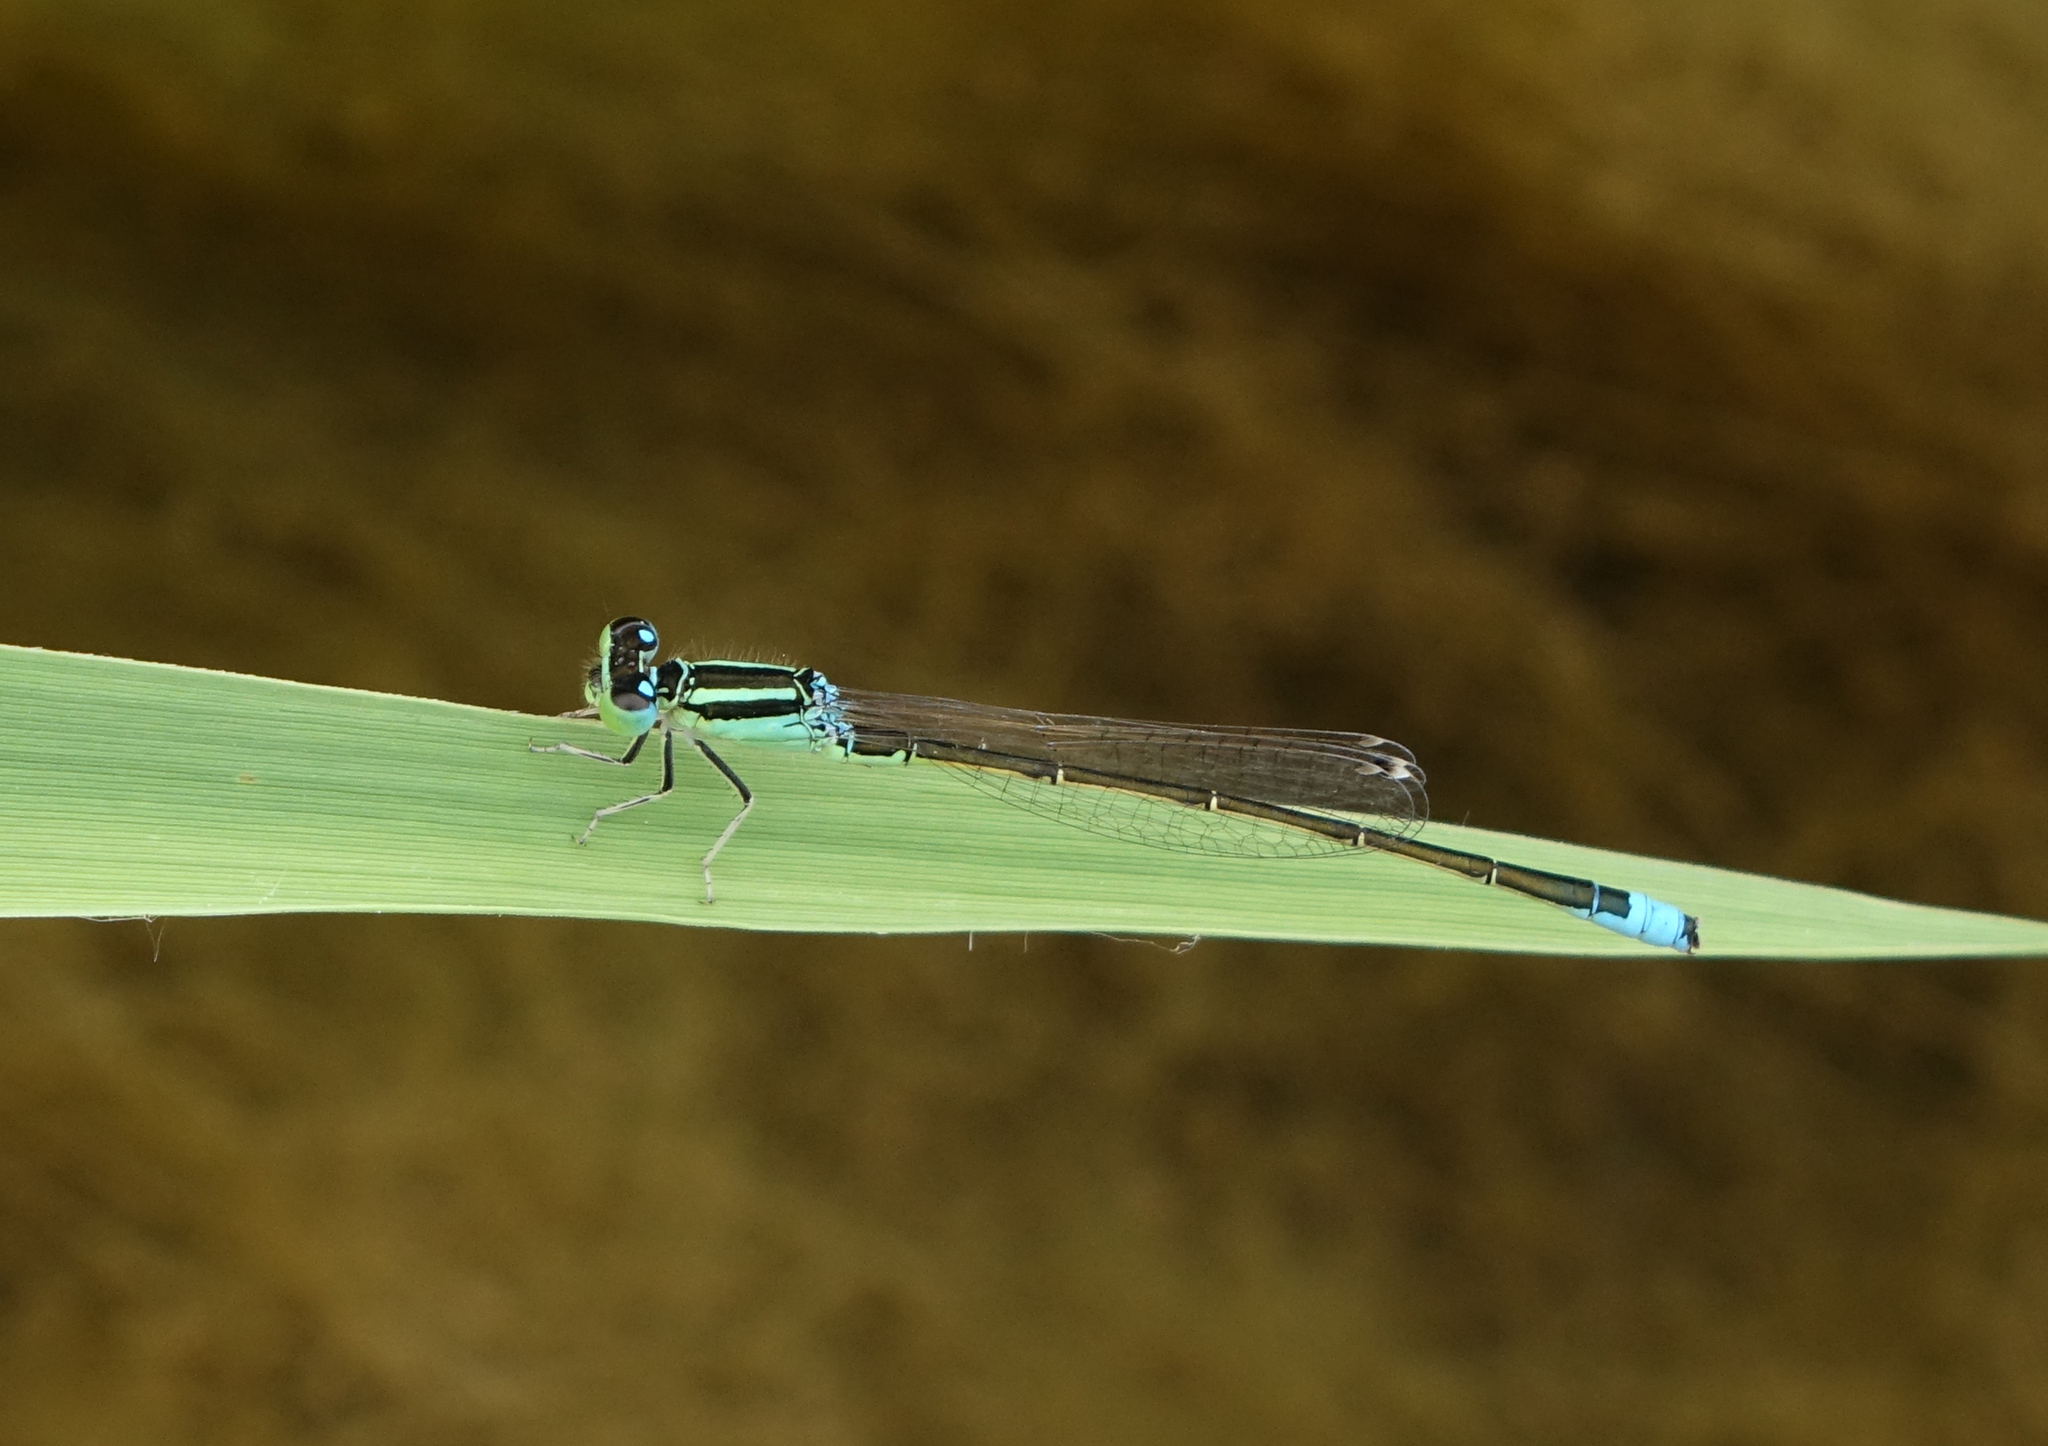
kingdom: Animalia
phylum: Arthropoda
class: Insecta
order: Odonata
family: Coenagrionidae
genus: Ischnura
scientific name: Ischnura pumilio
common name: Scarce blue-tailed damselfly
